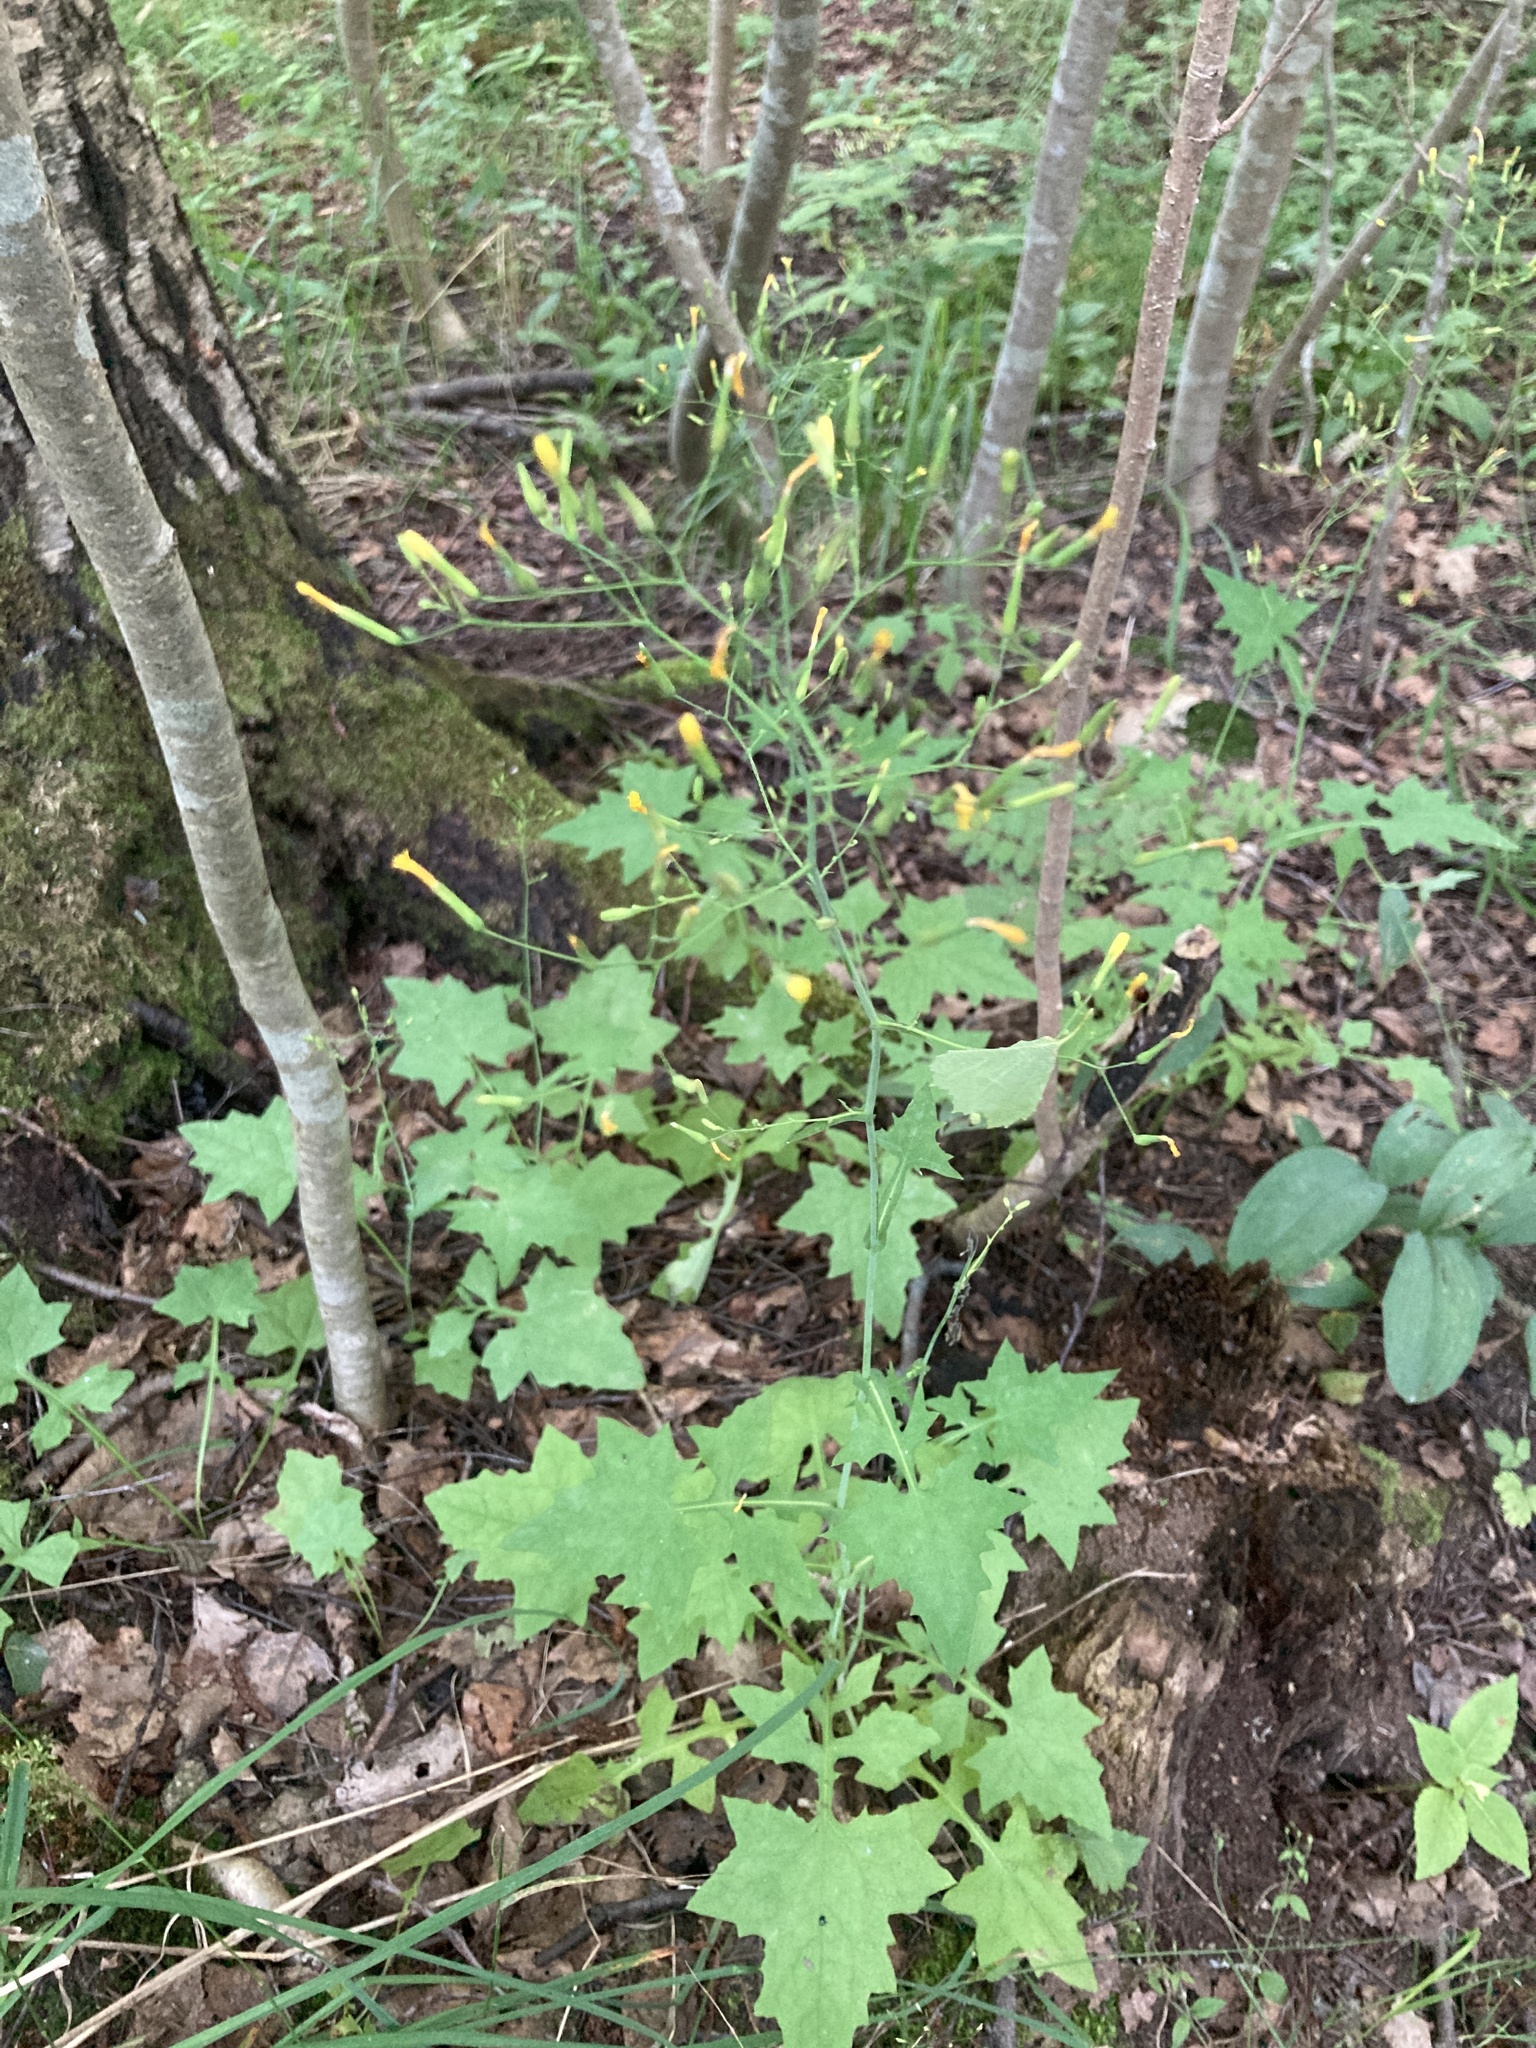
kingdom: Plantae
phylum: Tracheophyta
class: Magnoliopsida
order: Asterales
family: Asteraceae
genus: Mycelis
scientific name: Mycelis muralis
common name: Wall lettuce
